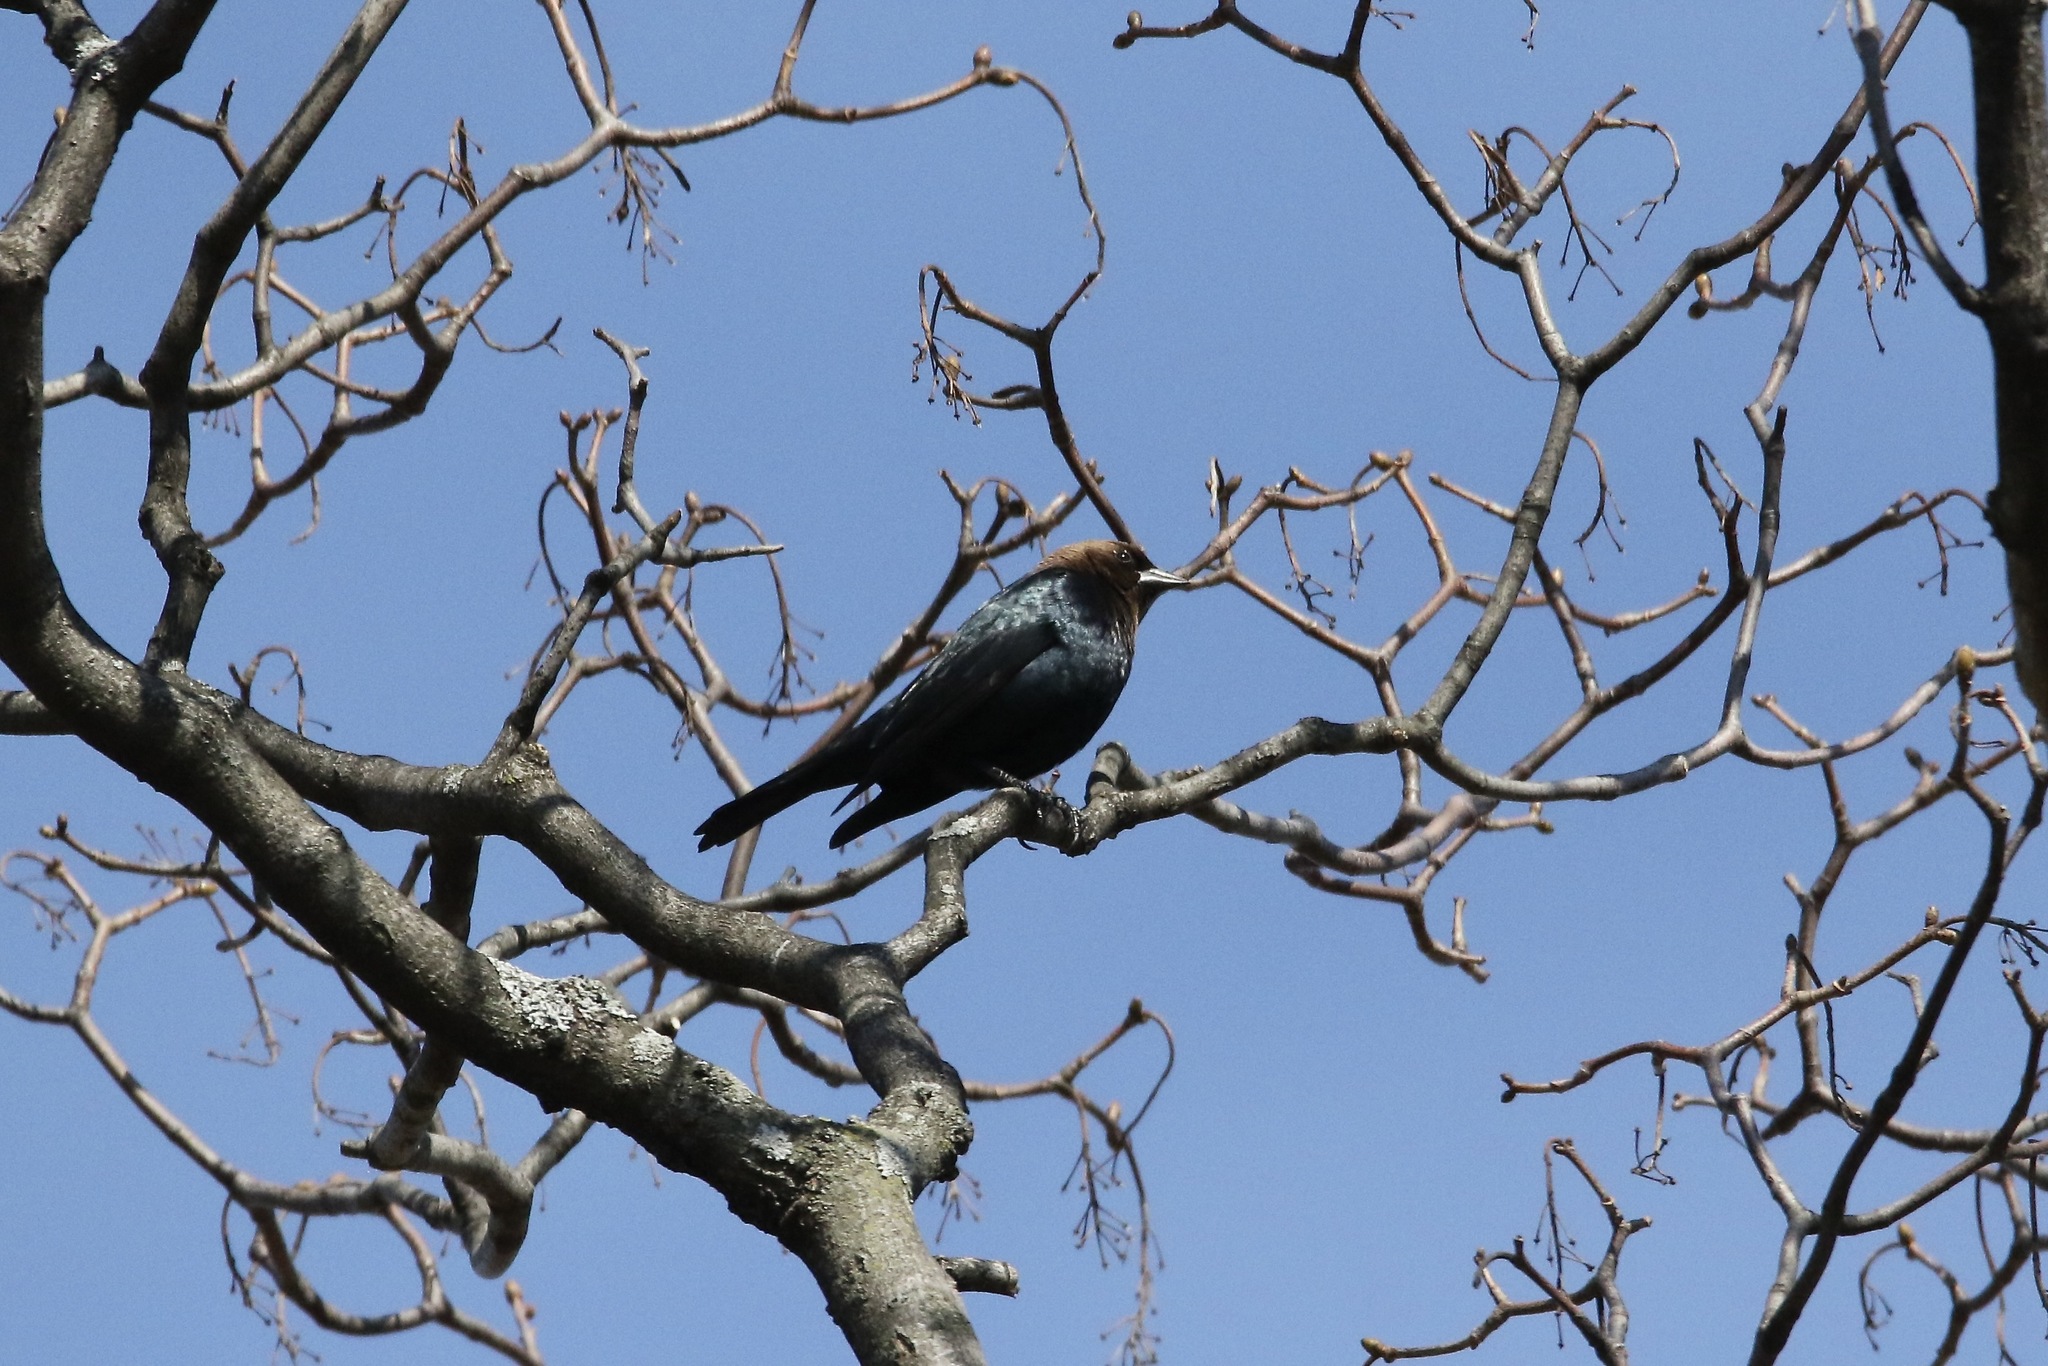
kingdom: Animalia
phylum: Chordata
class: Aves
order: Passeriformes
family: Icteridae
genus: Molothrus
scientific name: Molothrus ater
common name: Brown-headed cowbird
